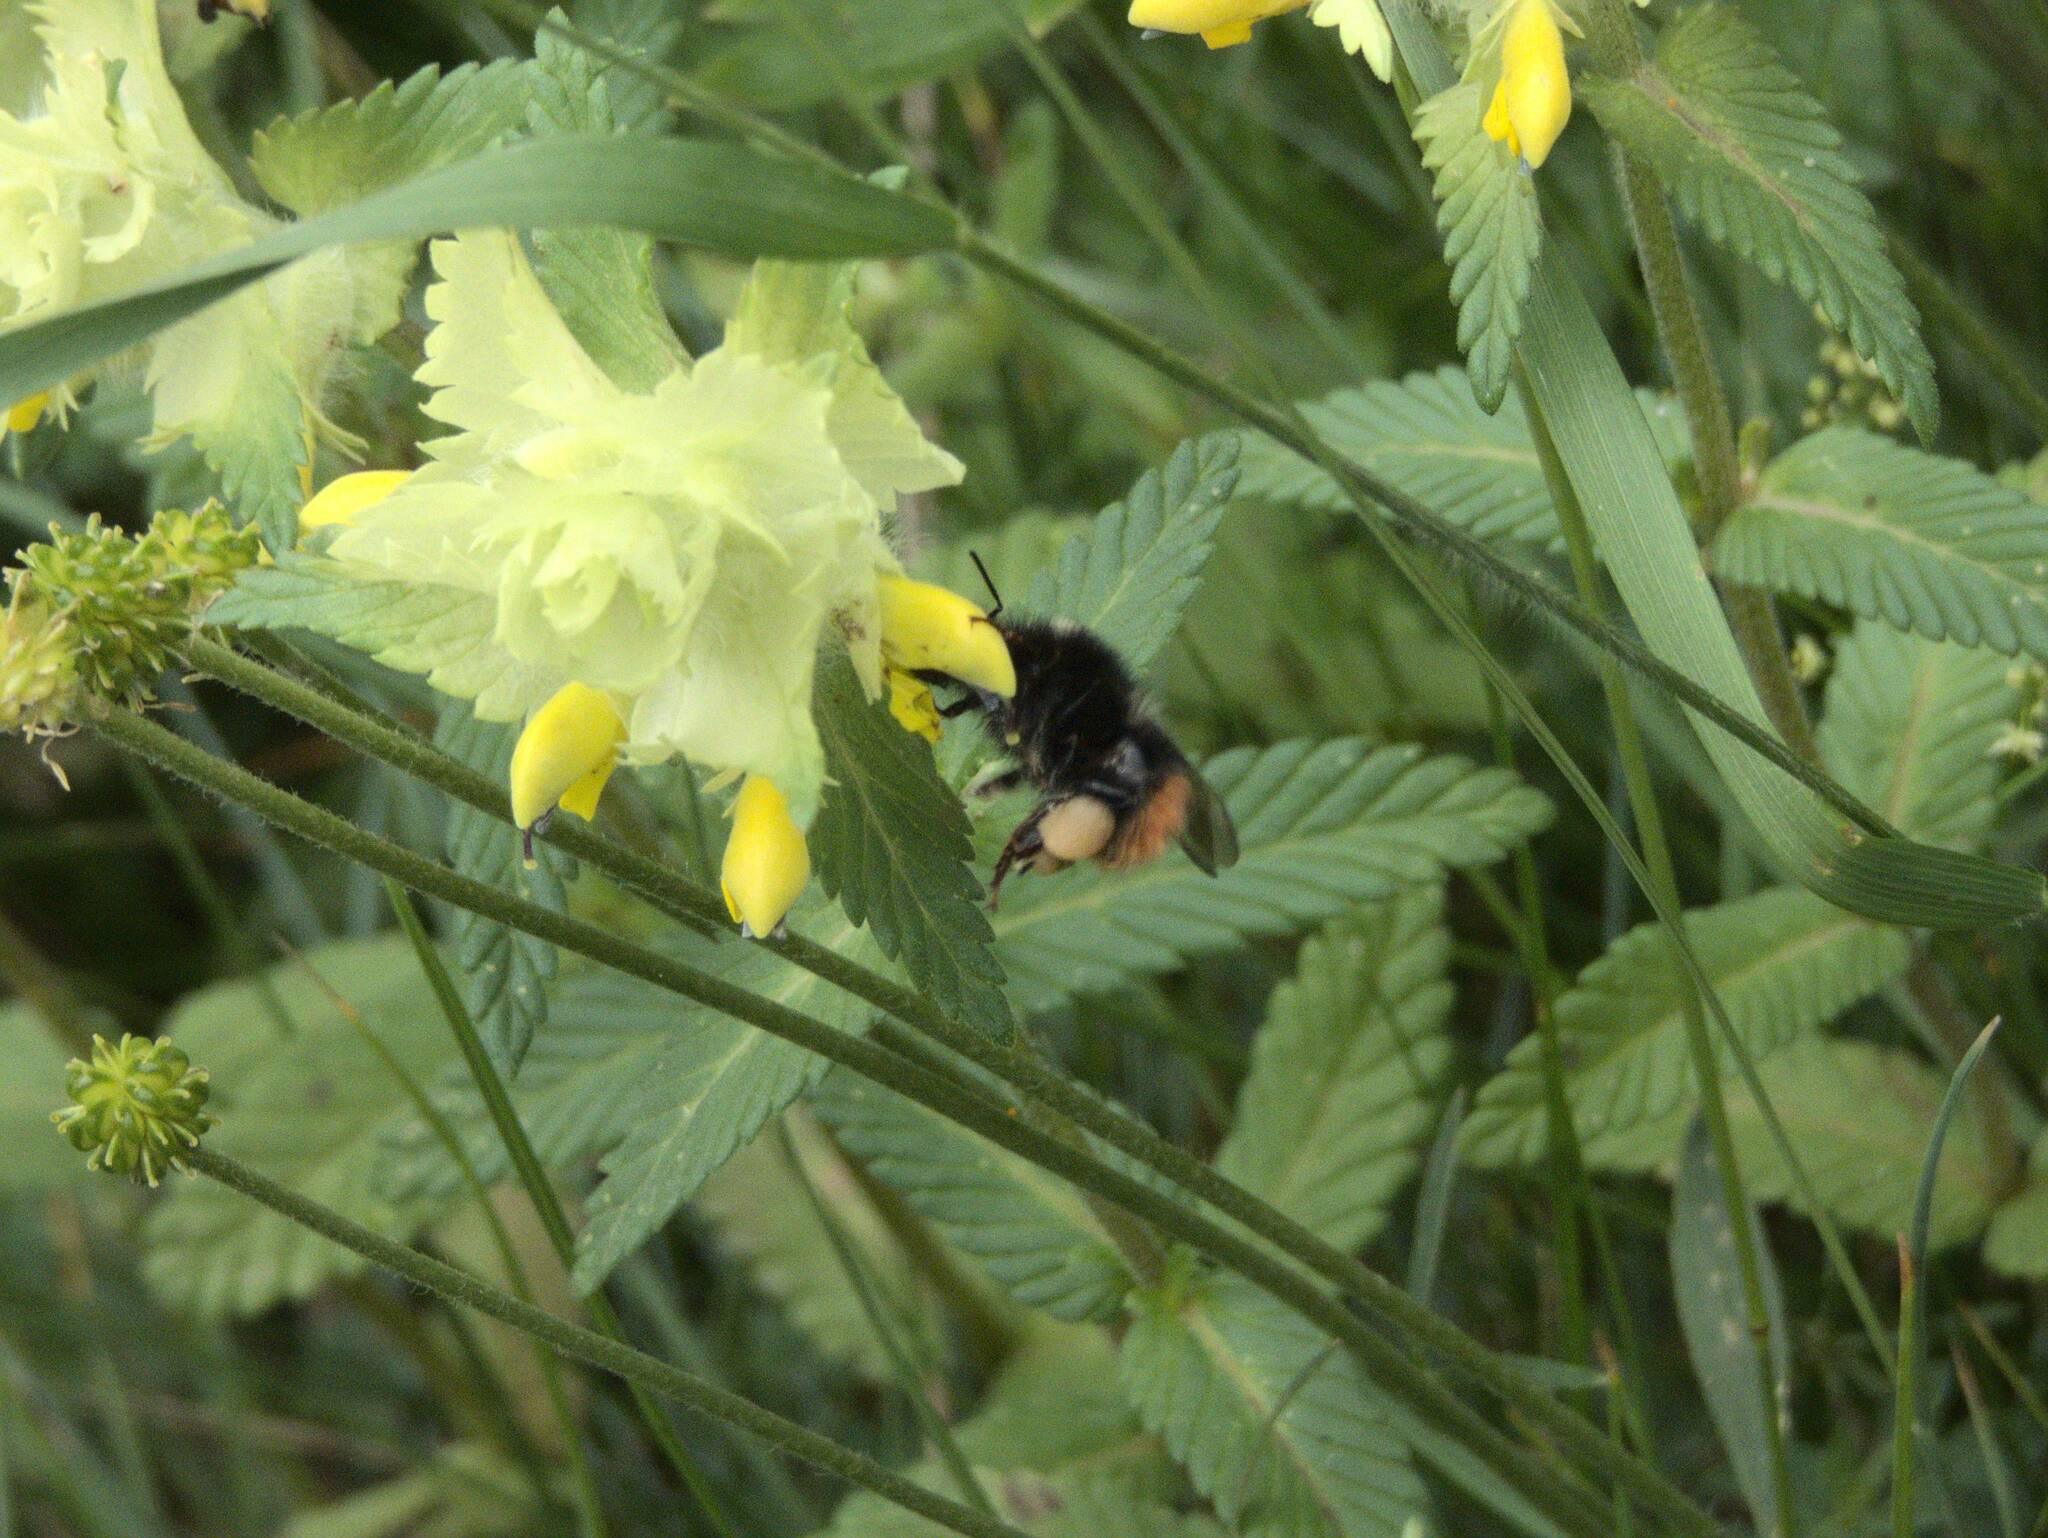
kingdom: Animalia
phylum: Arthropoda
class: Insecta
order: Hymenoptera
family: Apidae
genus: Bombus
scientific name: Bombus wurflenii
